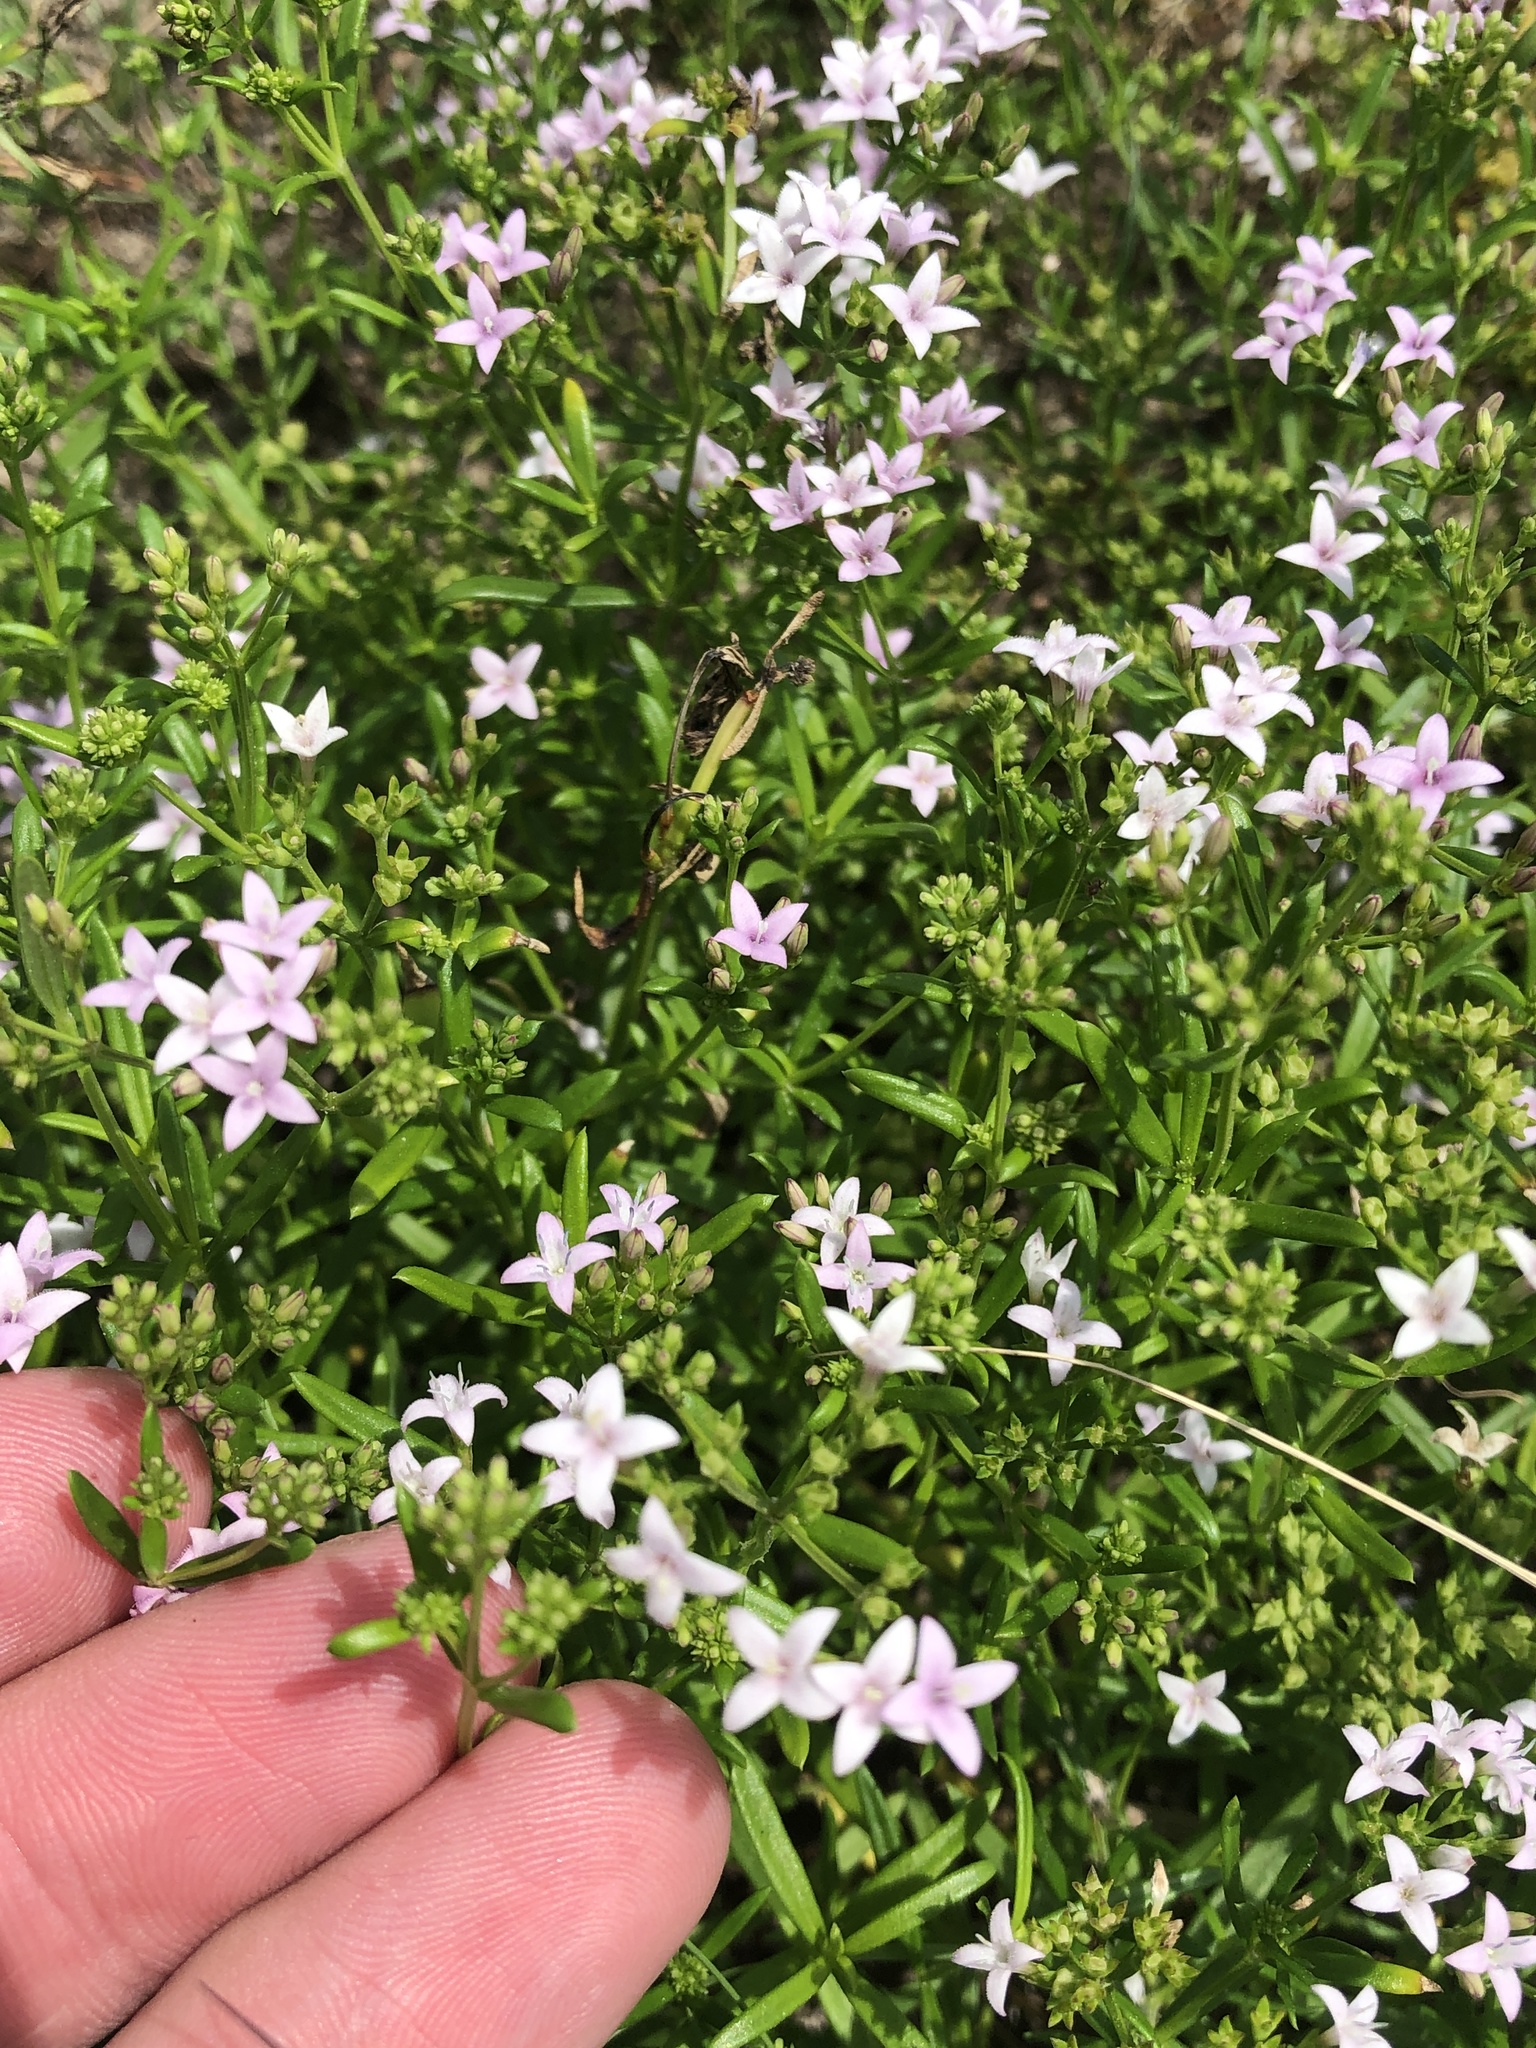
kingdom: Plantae
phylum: Tracheophyta
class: Magnoliopsida
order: Gentianales
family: Rubiaceae
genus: Stenaria
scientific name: Stenaria nigricans
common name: Diamondflowers
